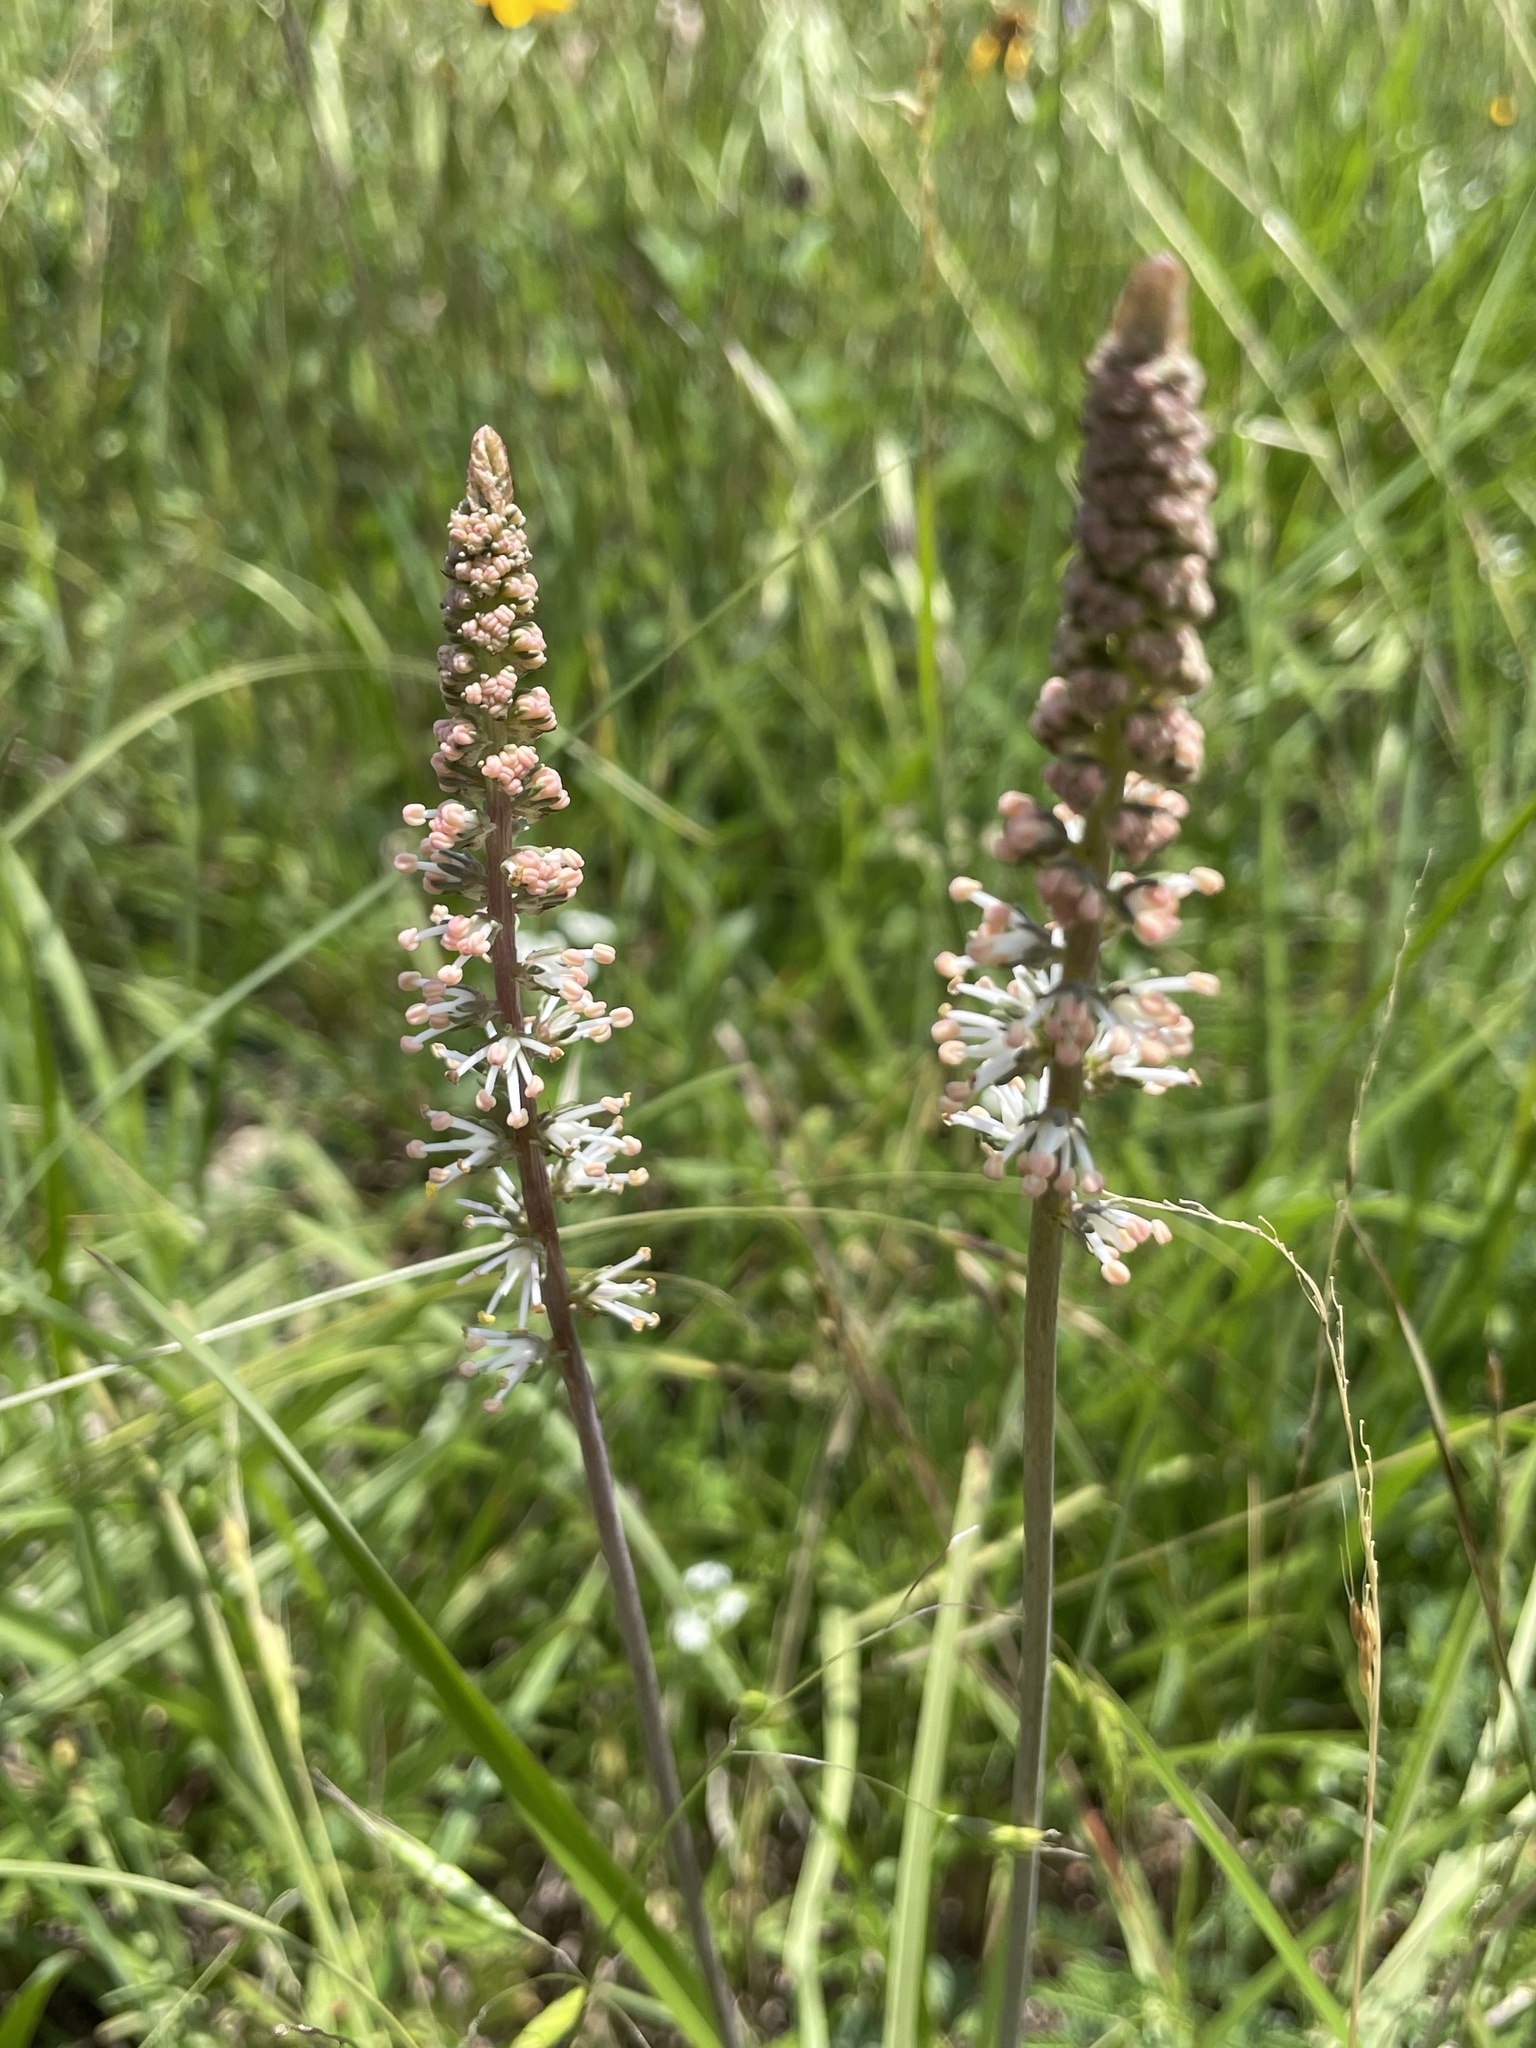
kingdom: Plantae
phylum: Tracheophyta
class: Liliopsida
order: Liliales
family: Melanthiaceae
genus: Schoenocaulon
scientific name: Schoenocaulon texanum
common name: Texas feather-shank
